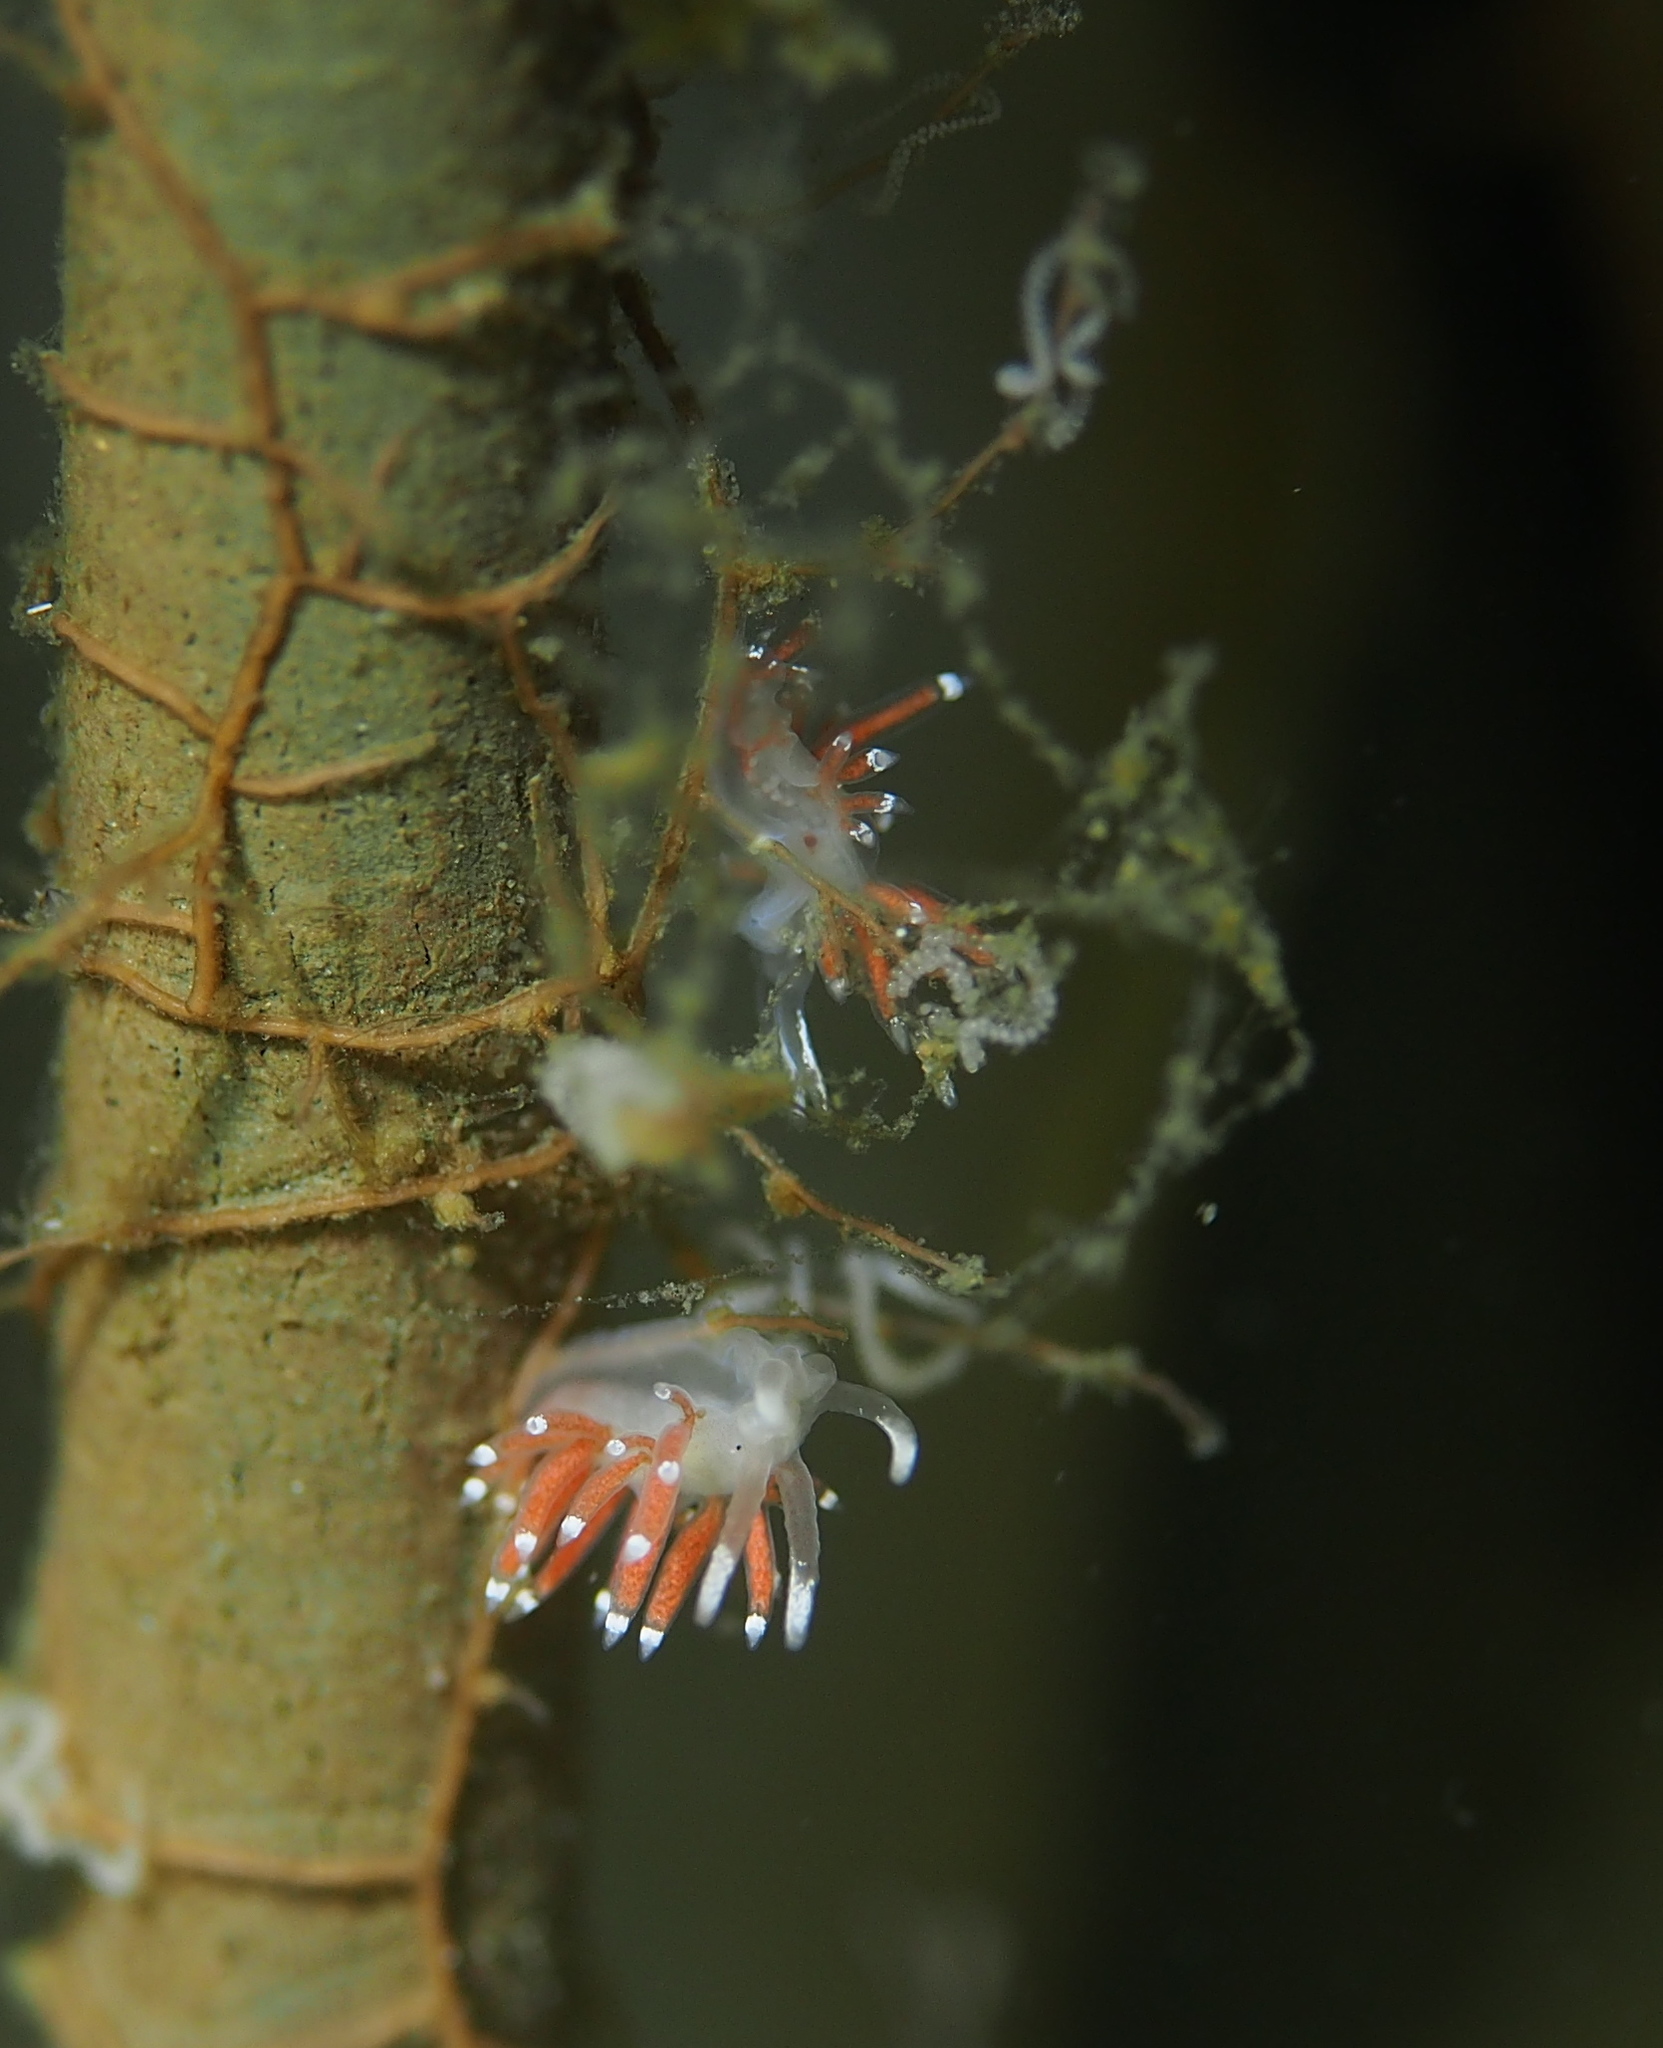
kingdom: Animalia
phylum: Mollusca
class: Gastropoda
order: Nudibranchia
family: Coryphellidae
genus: Coryphella
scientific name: Coryphella gracilis
